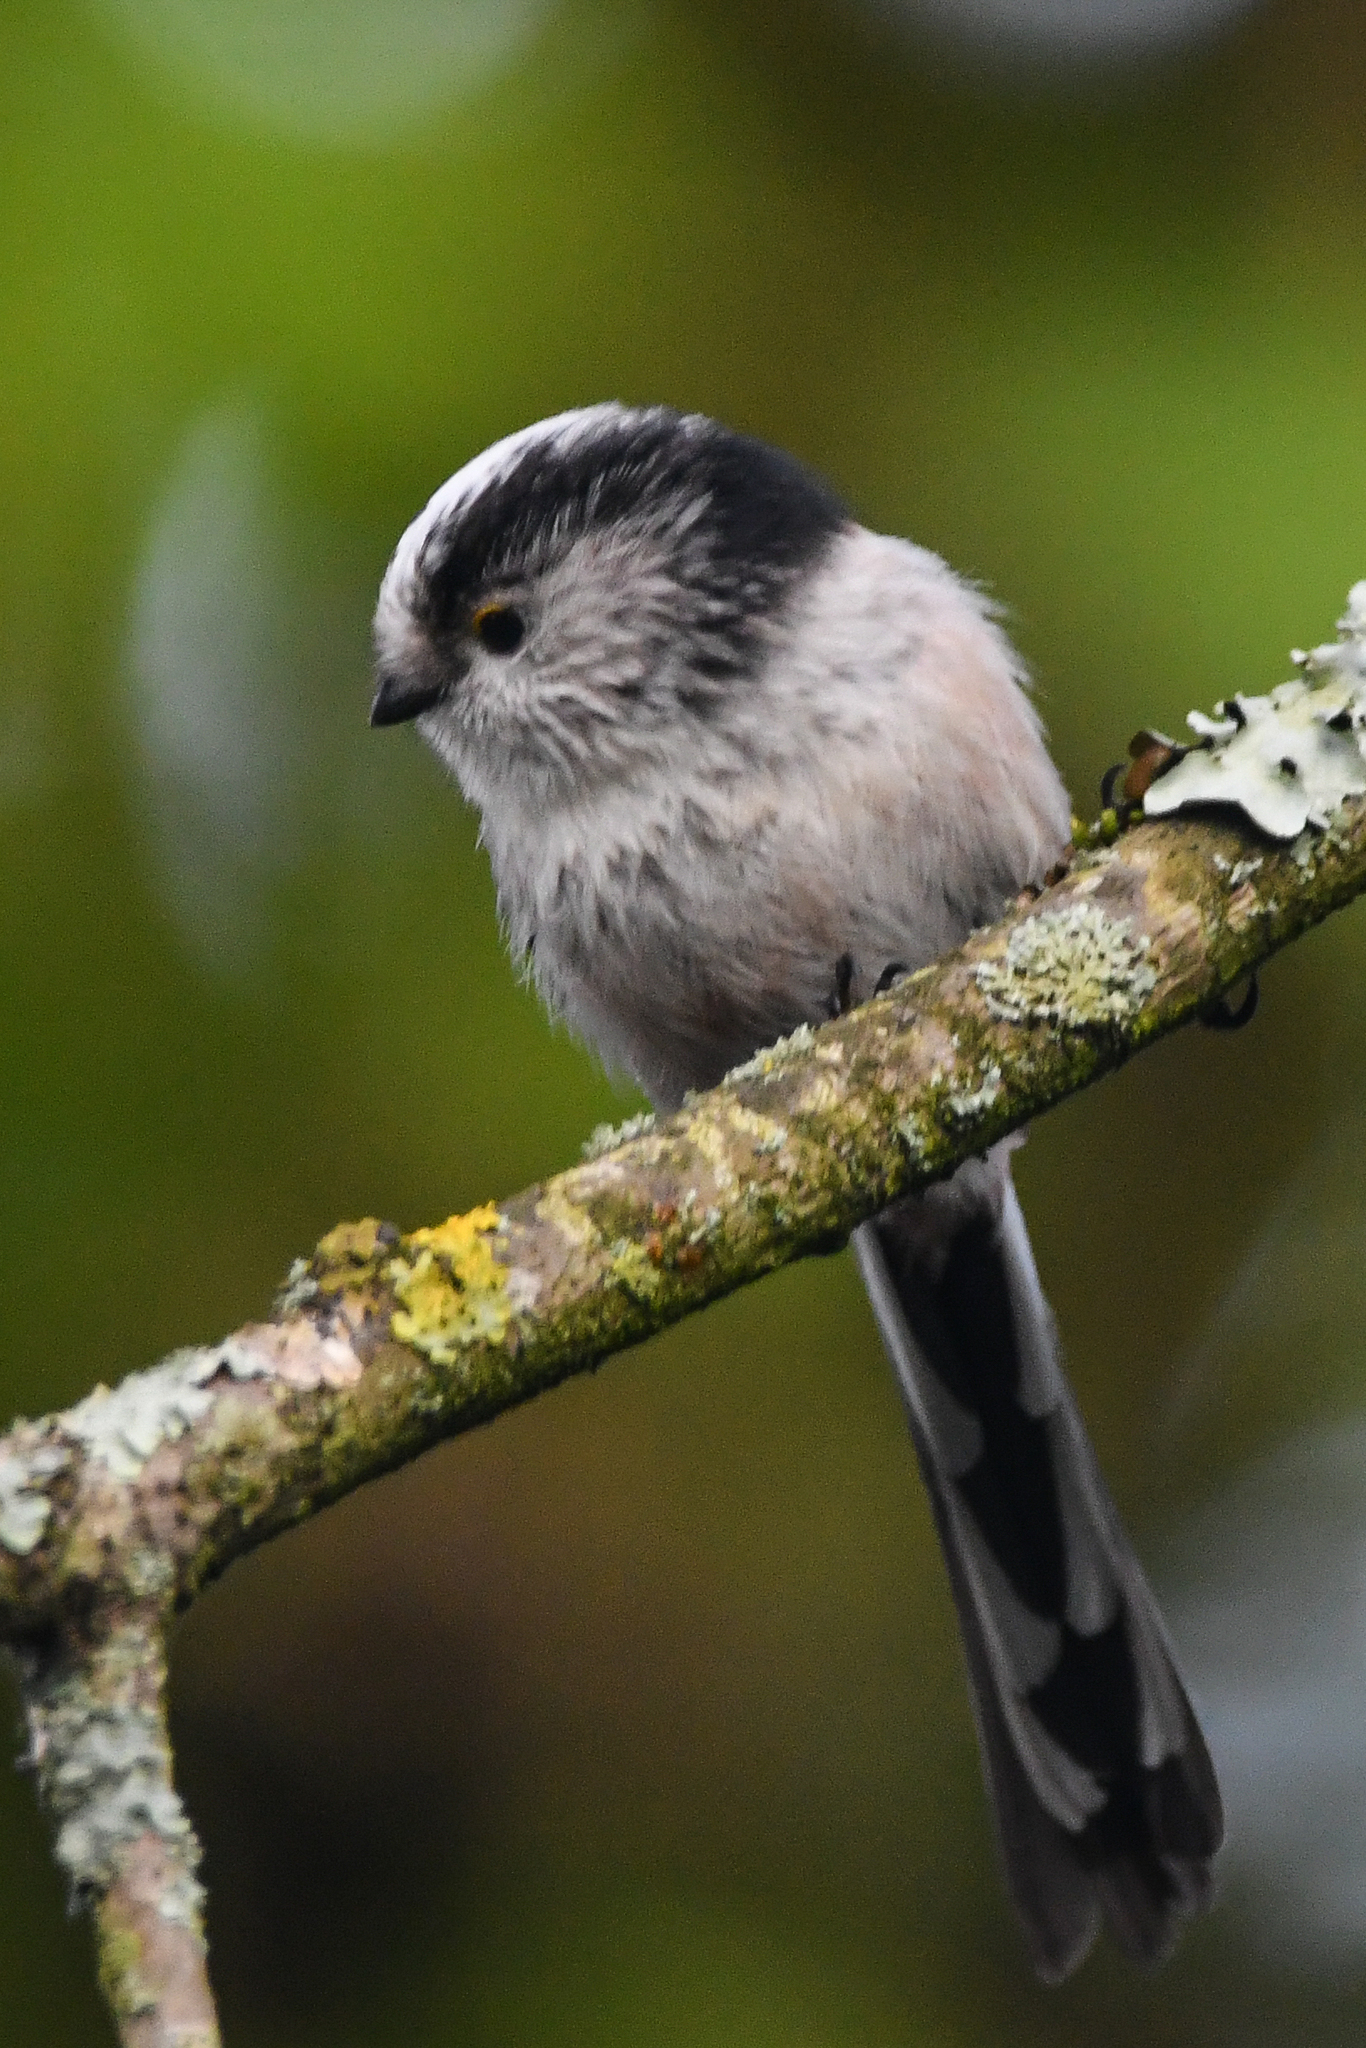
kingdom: Animalia
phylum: Chordata
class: Aves
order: Passeriformes
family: Aegithalidae
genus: Aegithalos
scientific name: Aegithalos caudatus
